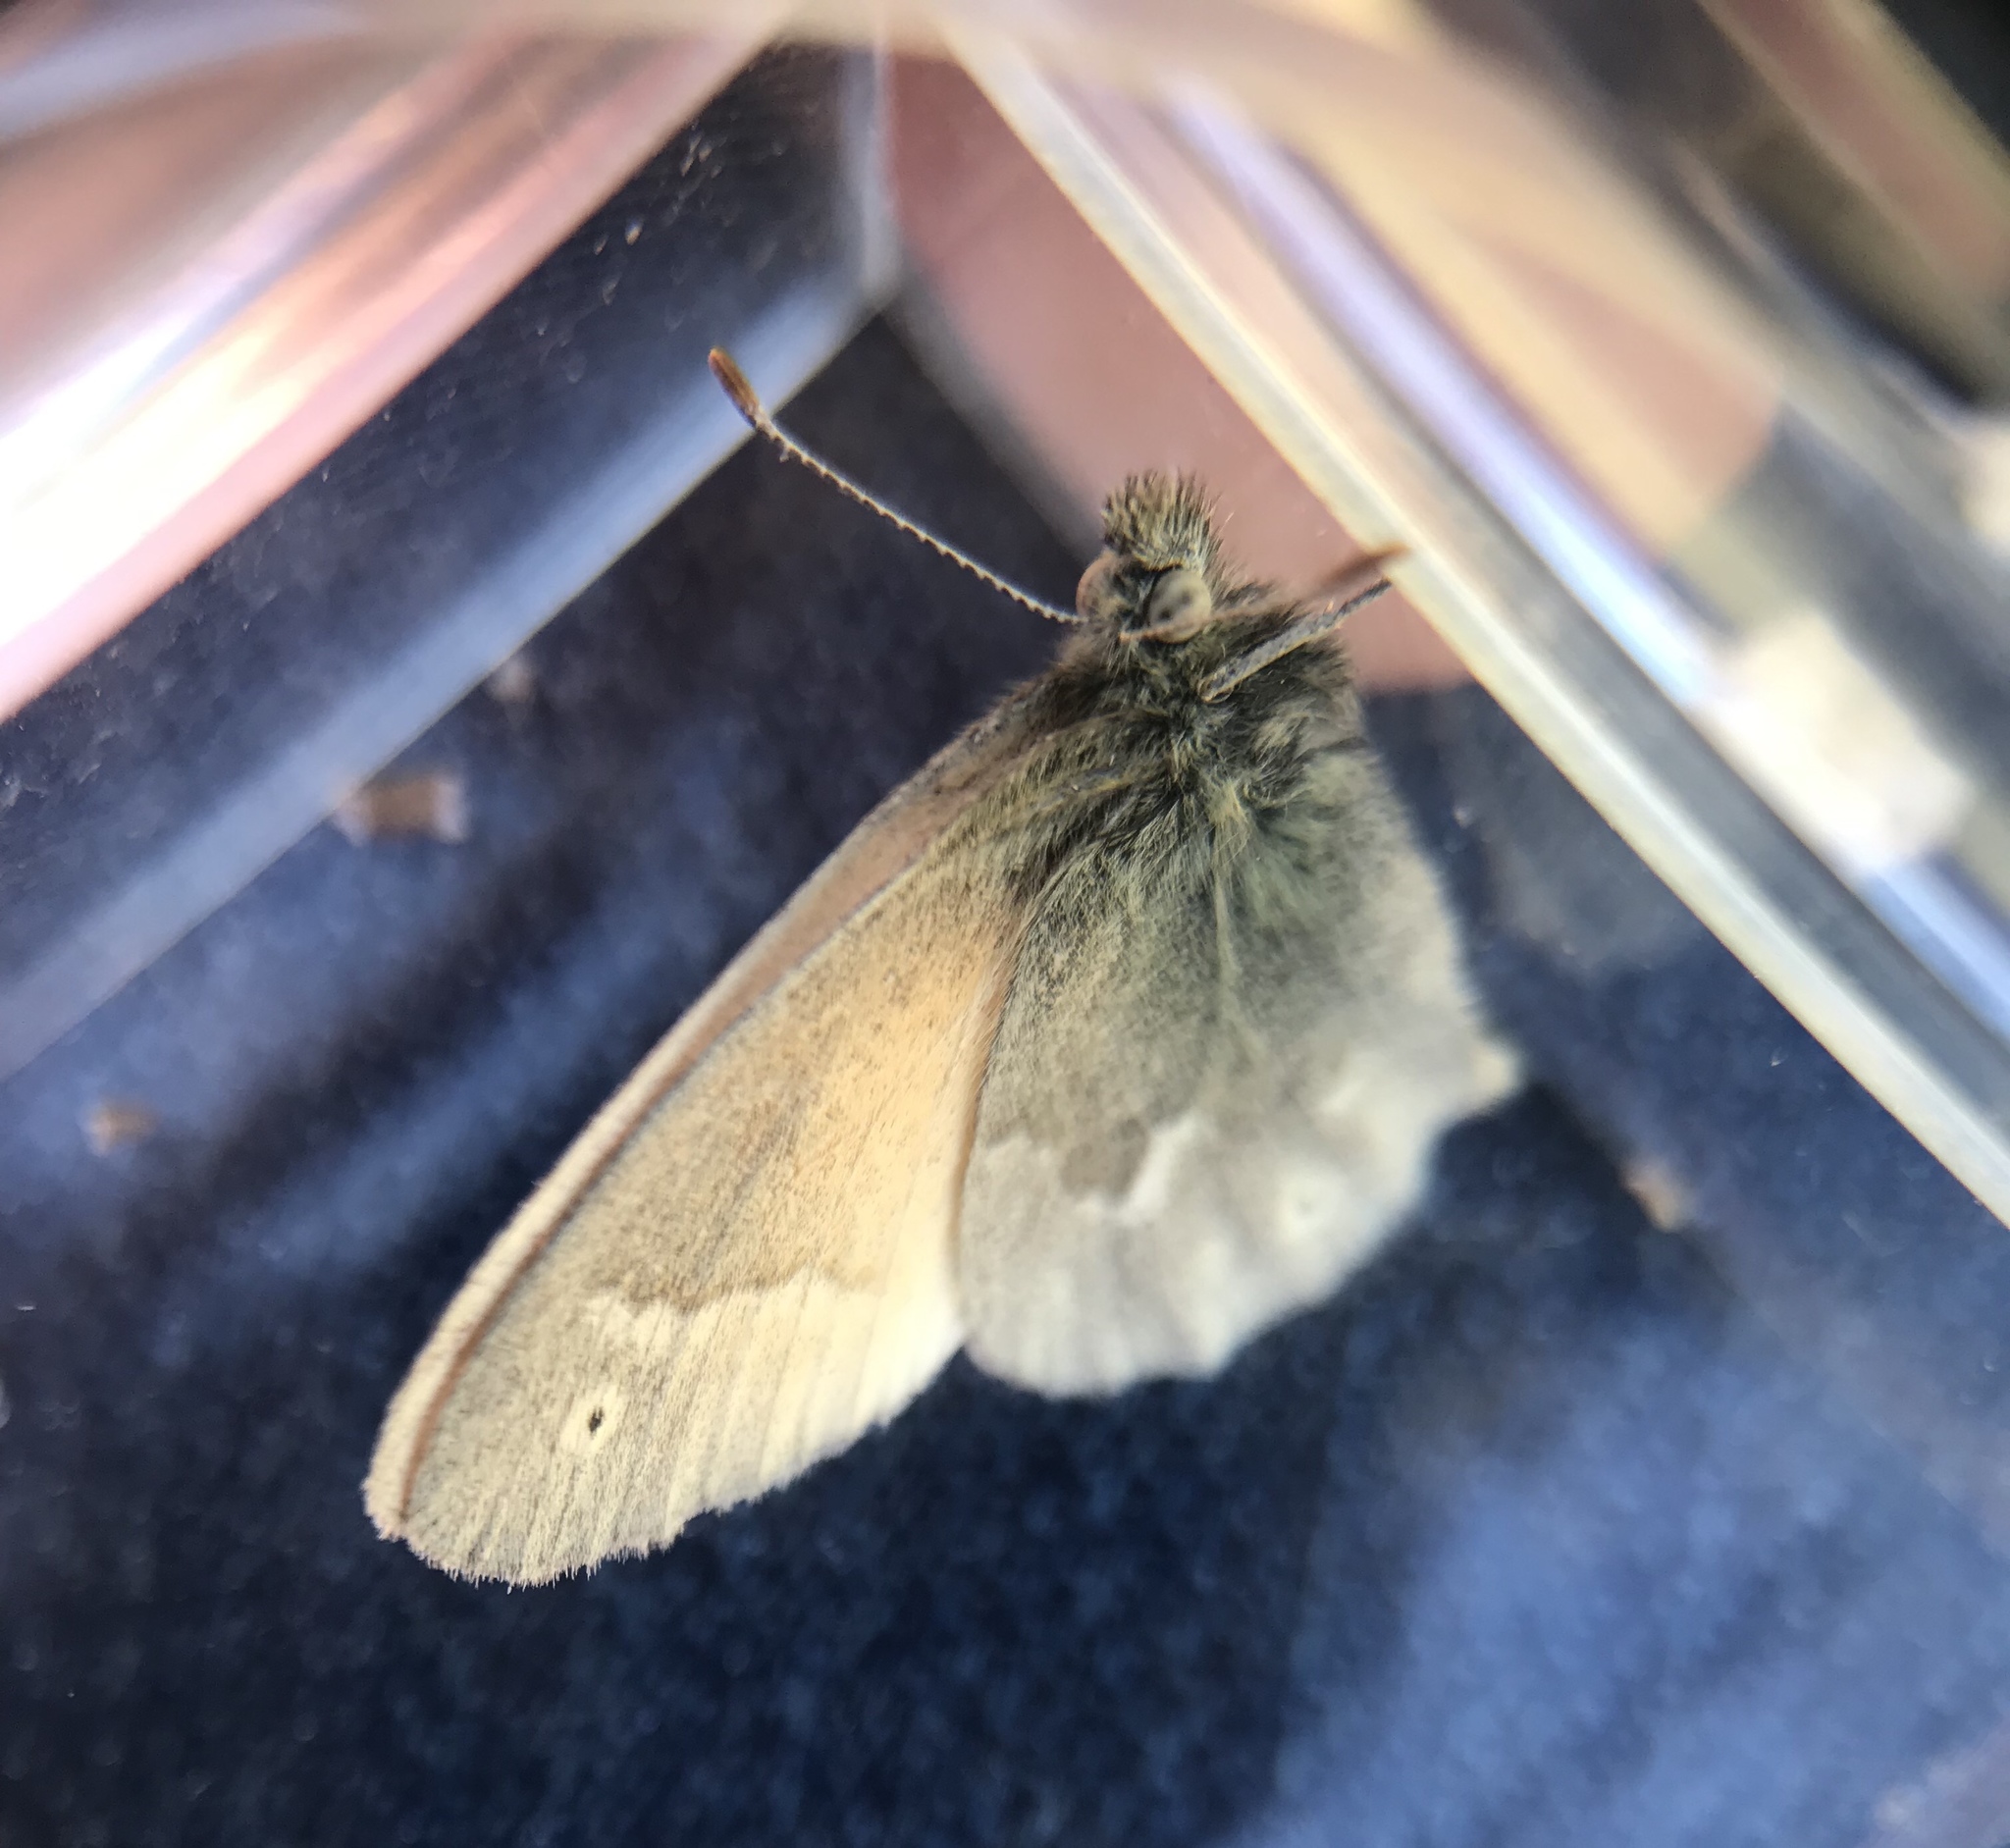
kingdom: Animalia
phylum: Arthropoda
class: Insecta
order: Lepidoptera
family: Nymphalidae
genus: Coenonympha
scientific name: Coenonympha california
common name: Common ringlet
